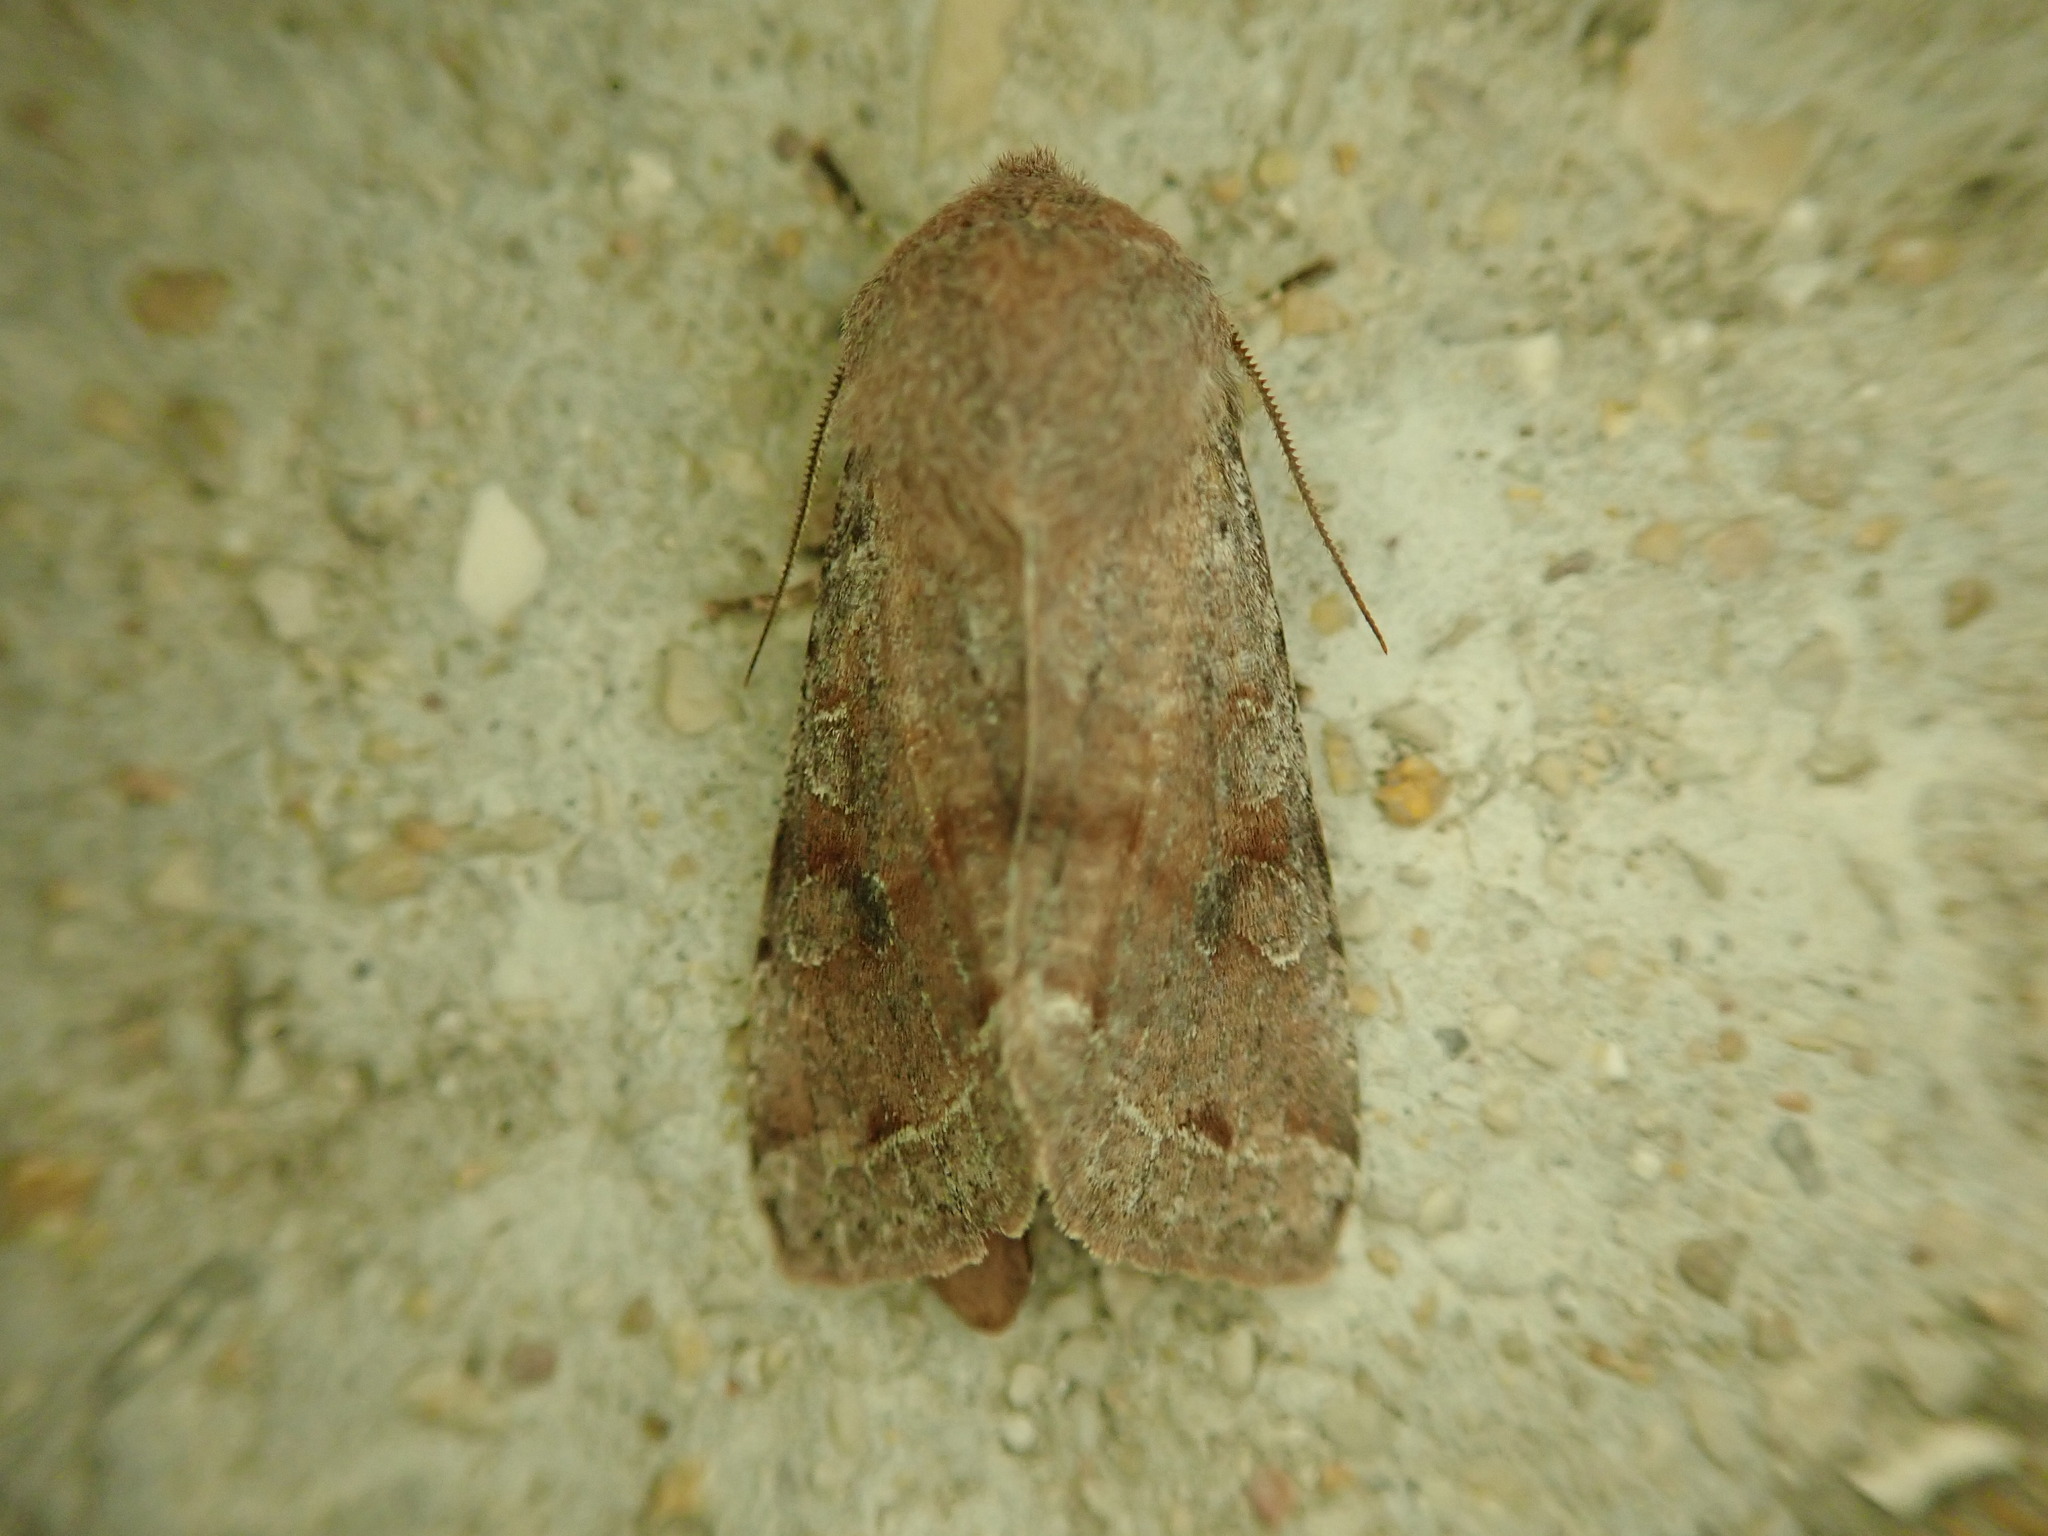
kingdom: Animalia
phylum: Arthropoda
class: Insecta
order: Lepidoptera
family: Noctuidae
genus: Orthosia
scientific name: Orthosia incerta
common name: Clouded drab
